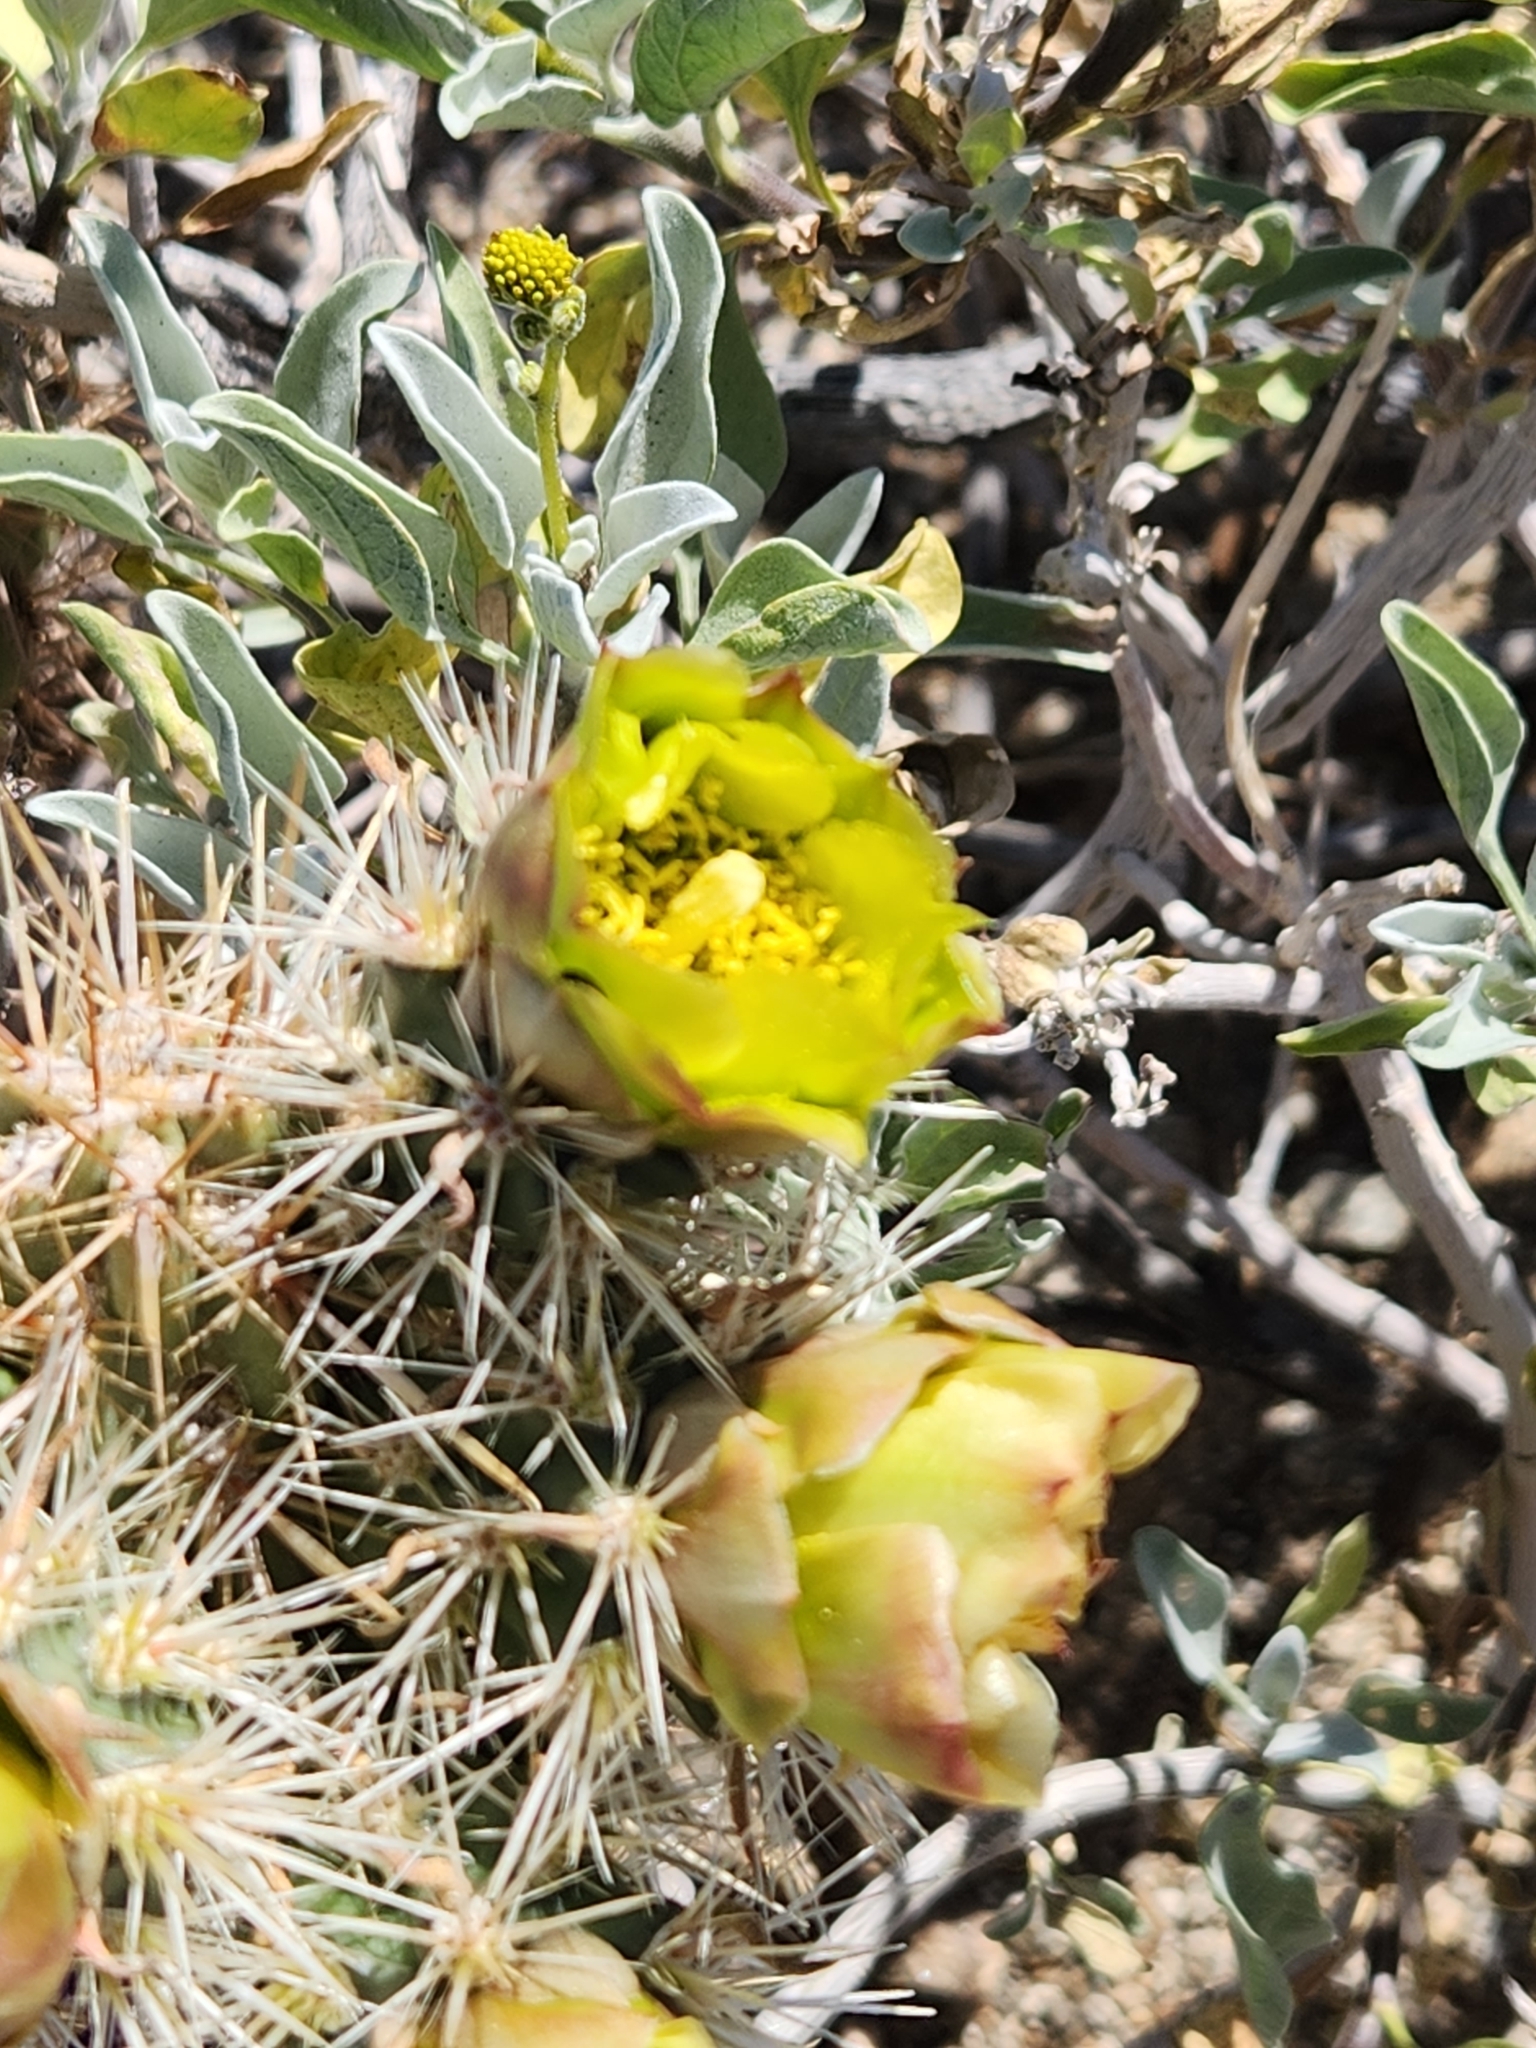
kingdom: Plantae
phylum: Tracheophyta
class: Magnoliopsida
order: Caryophyllales
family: Cactaceae
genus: Cylindropuntia
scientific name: Cylindropuntia ganderi
